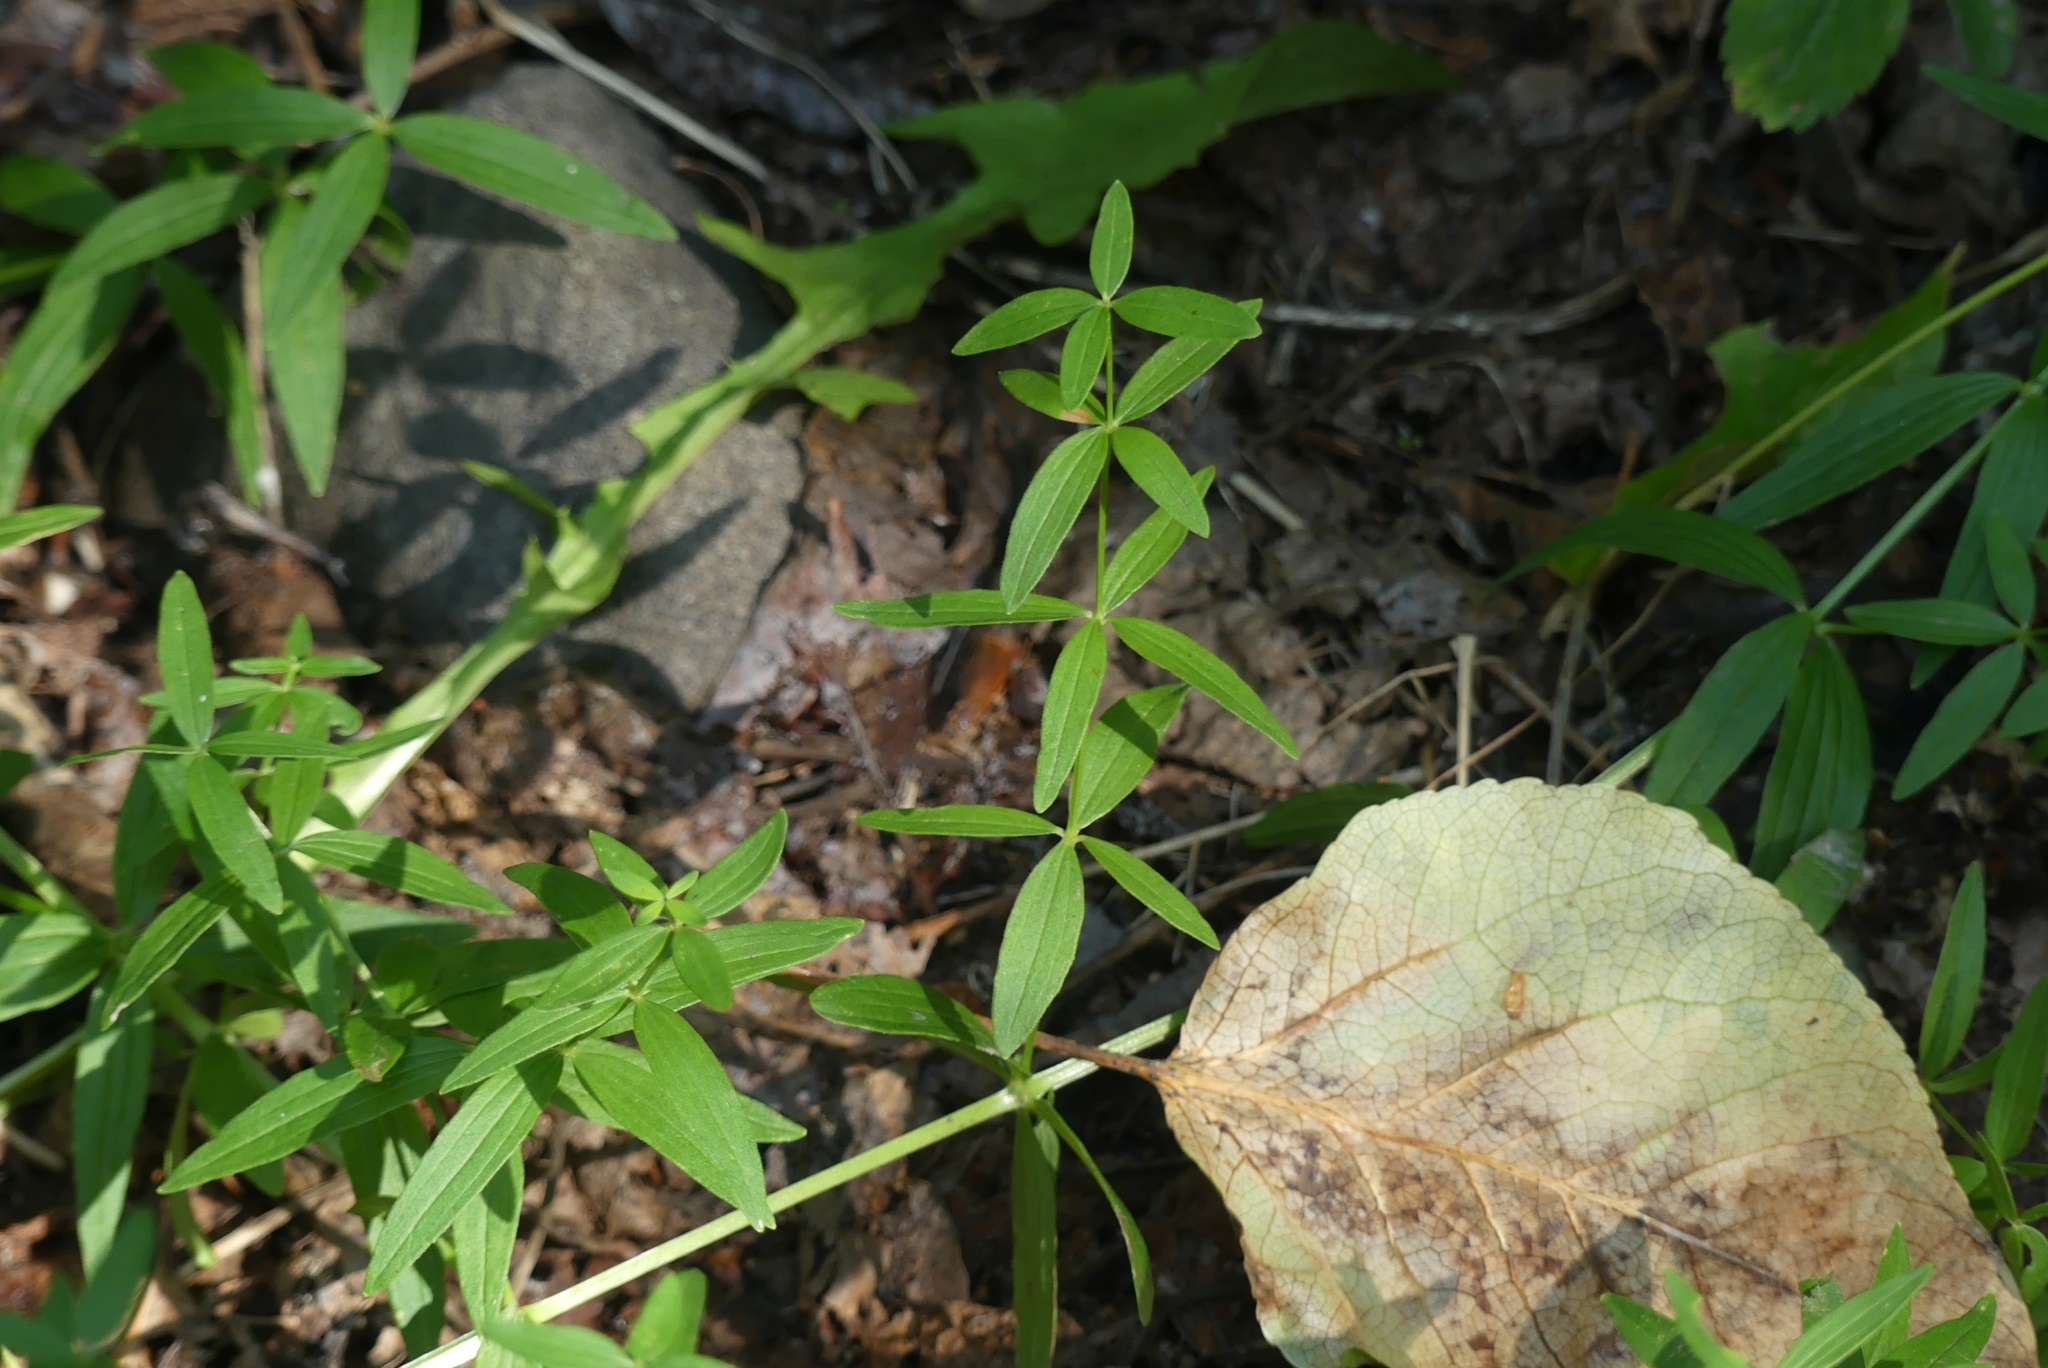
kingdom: Plantae
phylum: Tracheophyta
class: Magnoliopsida
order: Gentianales
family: Rubiaceae
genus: Galium
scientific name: Galium boreale
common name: Northern bedstraw
